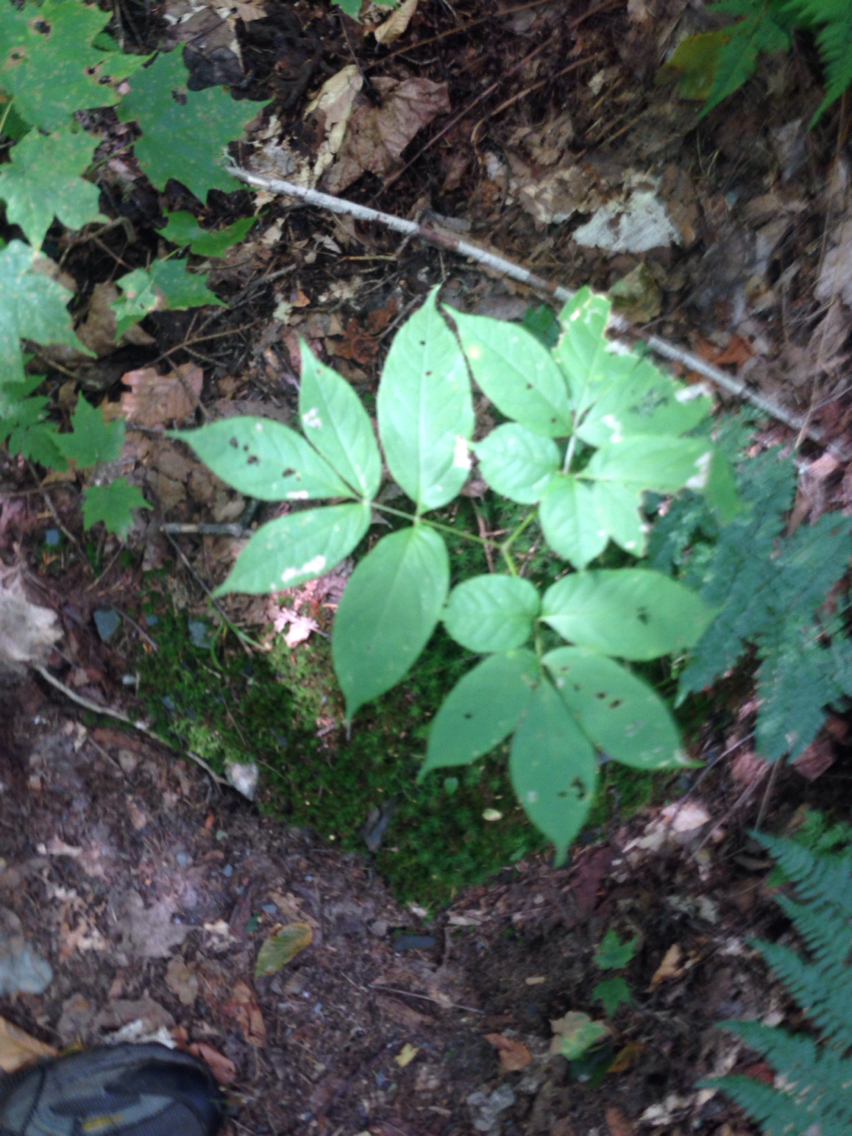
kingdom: Plantae
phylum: Tracheophyta
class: Magnoliopsida
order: Apiales
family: Araliaceae
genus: Aralia
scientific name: Aralia nudicaulis
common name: Wild sarsaparilla
